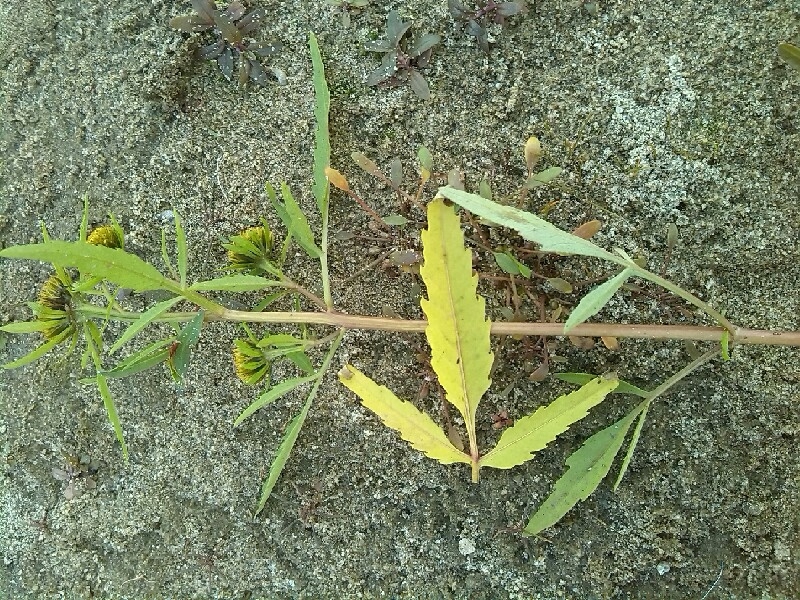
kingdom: Plantae
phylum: Tracheophyta
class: Magnoliopsida
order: Asterales
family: Asteraceae
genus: Bidens
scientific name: Bidens radiata
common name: Radiating bur-marigold
